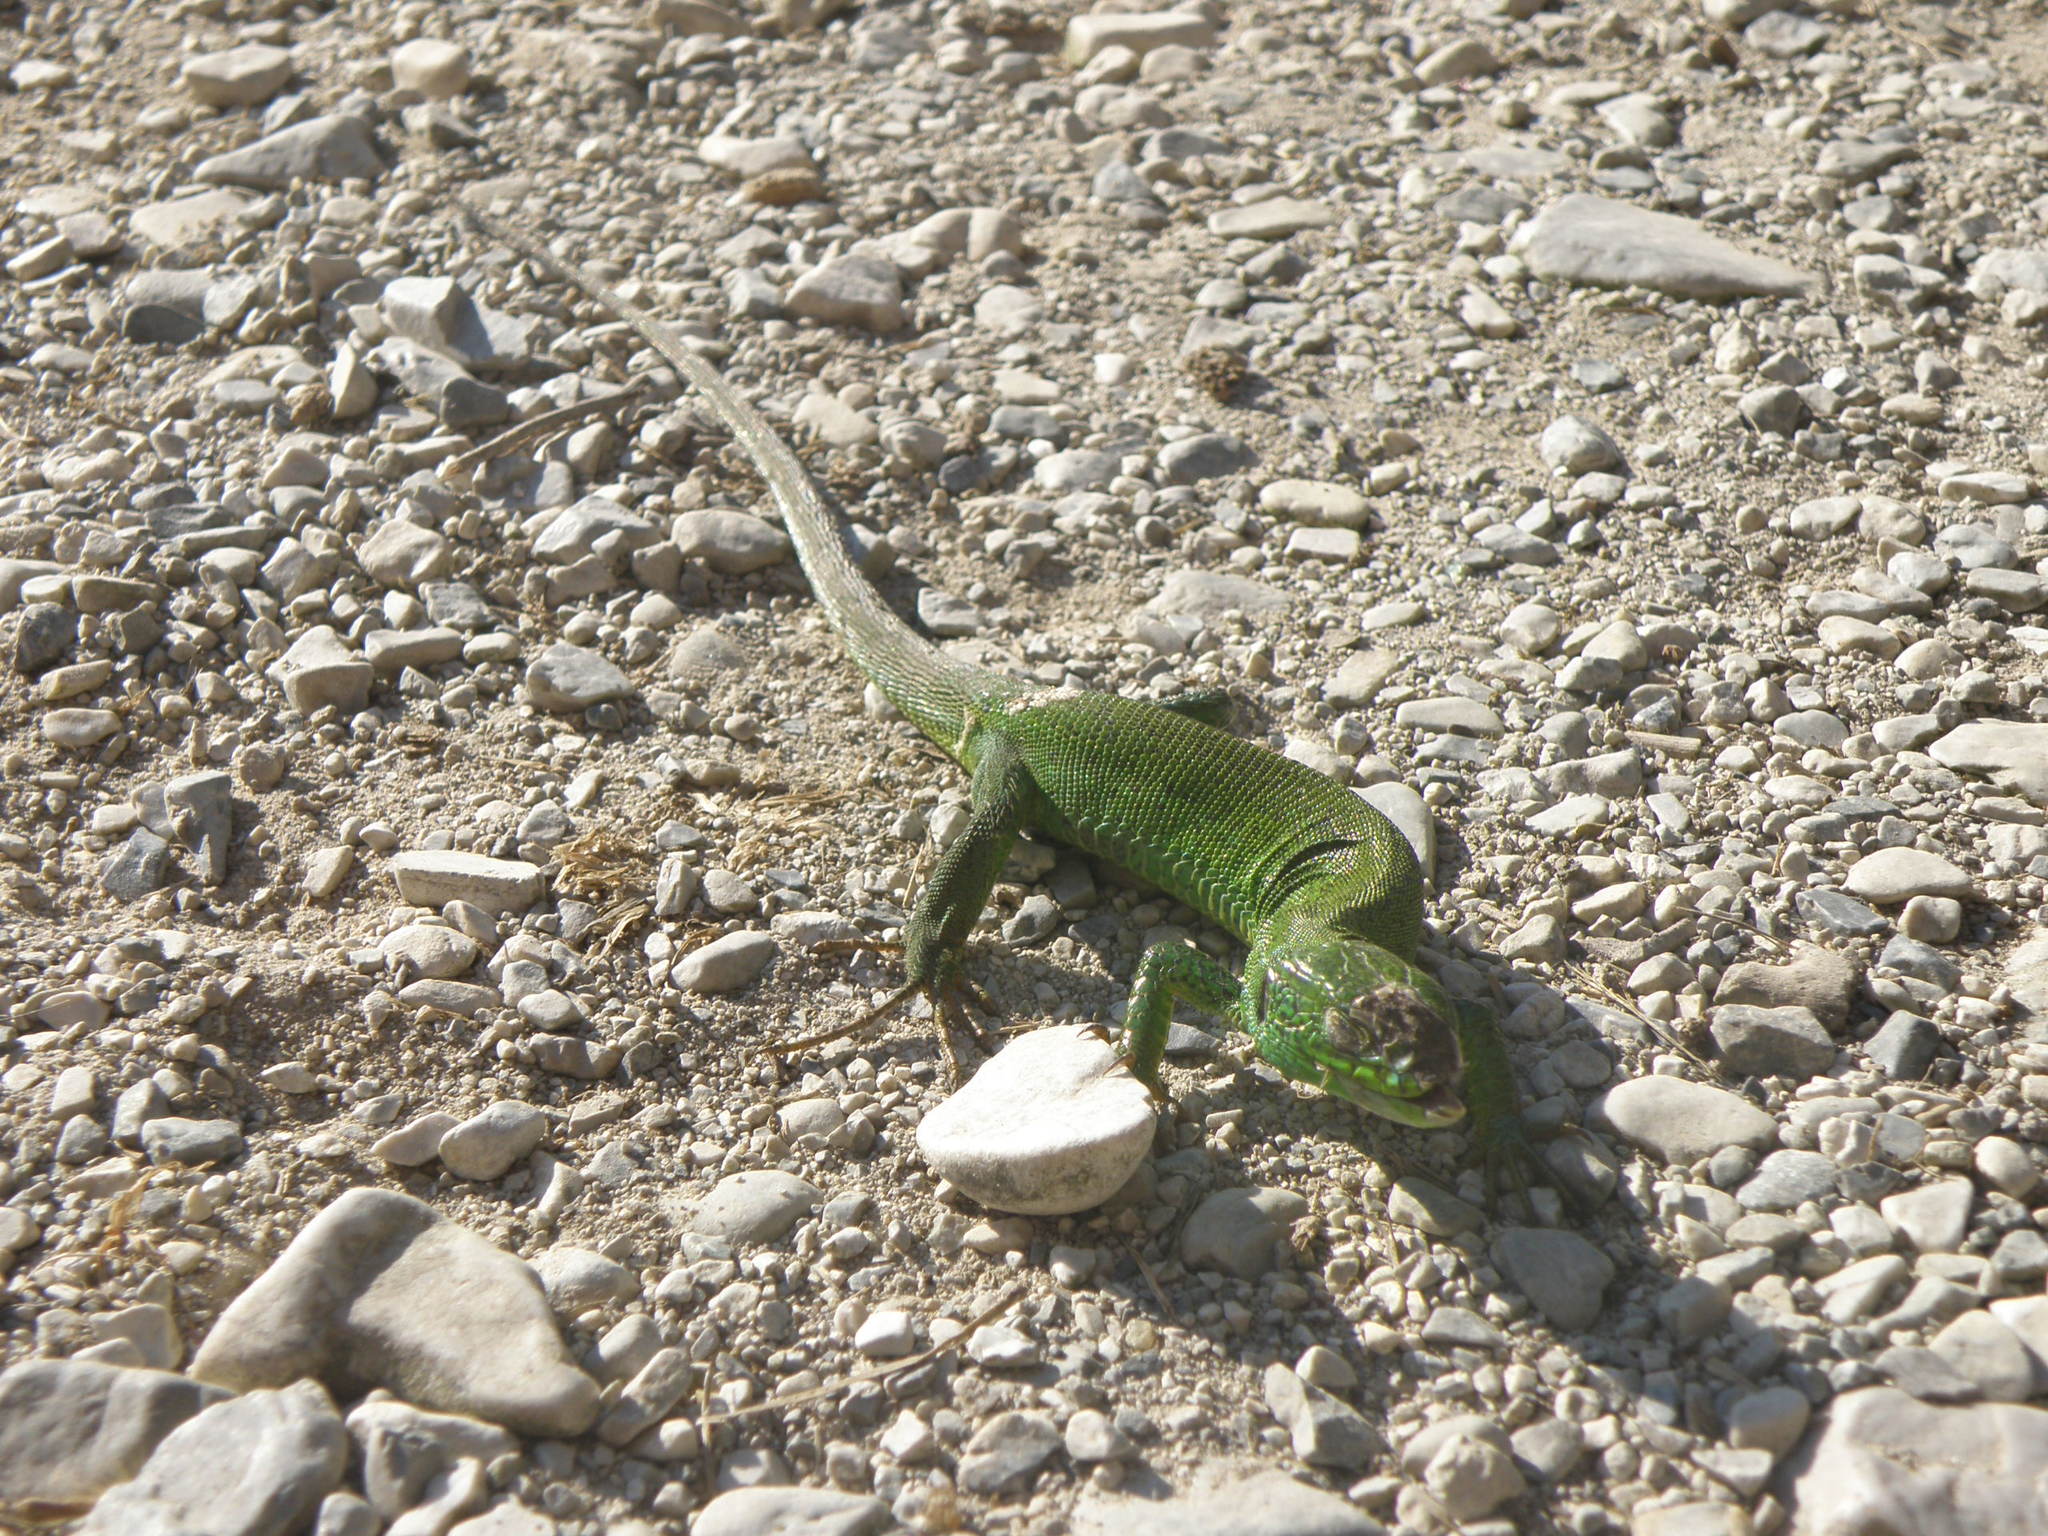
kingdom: Animalia
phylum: Chordata
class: Squamata
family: Lacertidae
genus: Lacerta
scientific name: Lacerta trilineata
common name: Balkan green lizard
